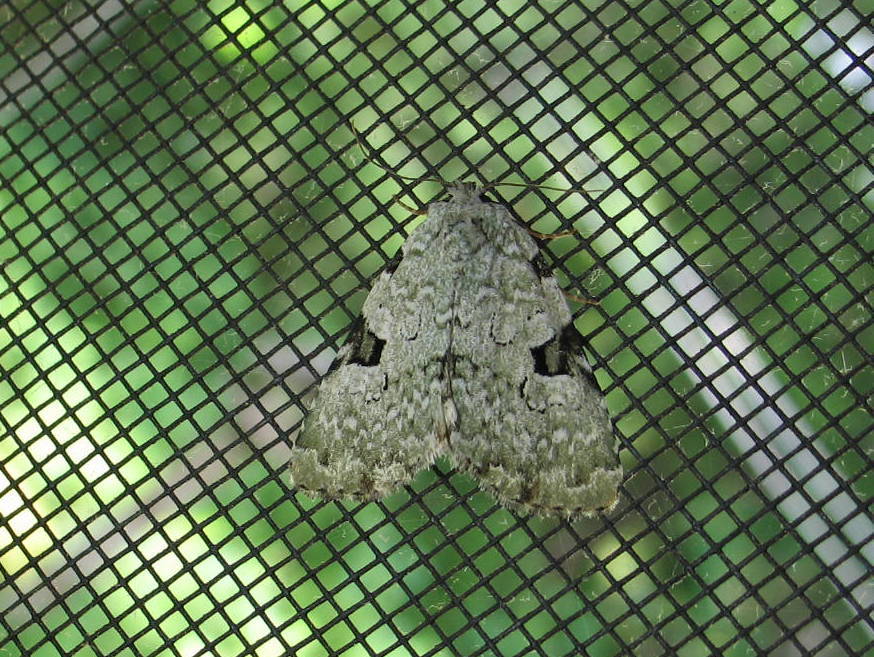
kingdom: Animalia
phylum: Arthropoda
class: Insecta
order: Lepidoptera
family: Noctuidae
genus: Leuconycta
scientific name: Leuconycta diphteroides
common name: Green leuconycta moth
